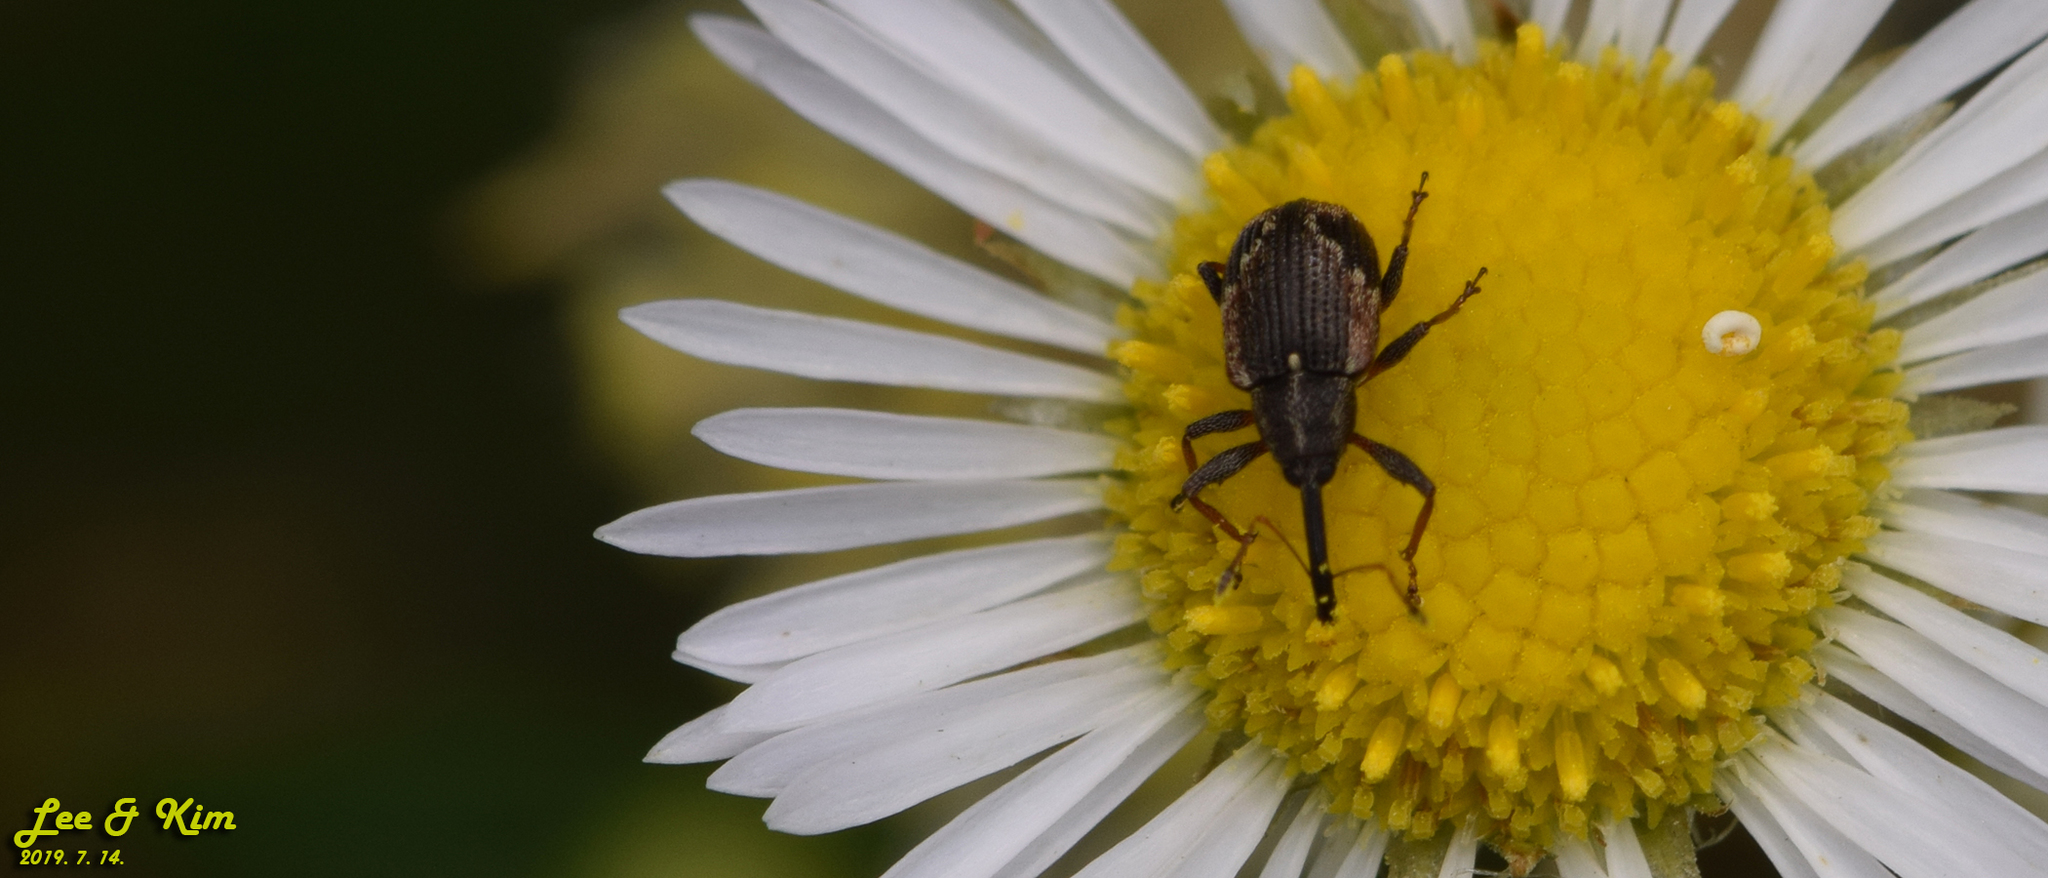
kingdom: Animalia
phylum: Arthropoda
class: Insecta
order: Coleoptera
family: Curculionidae
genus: Anthonomus
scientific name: Anthonomus bisignifer
